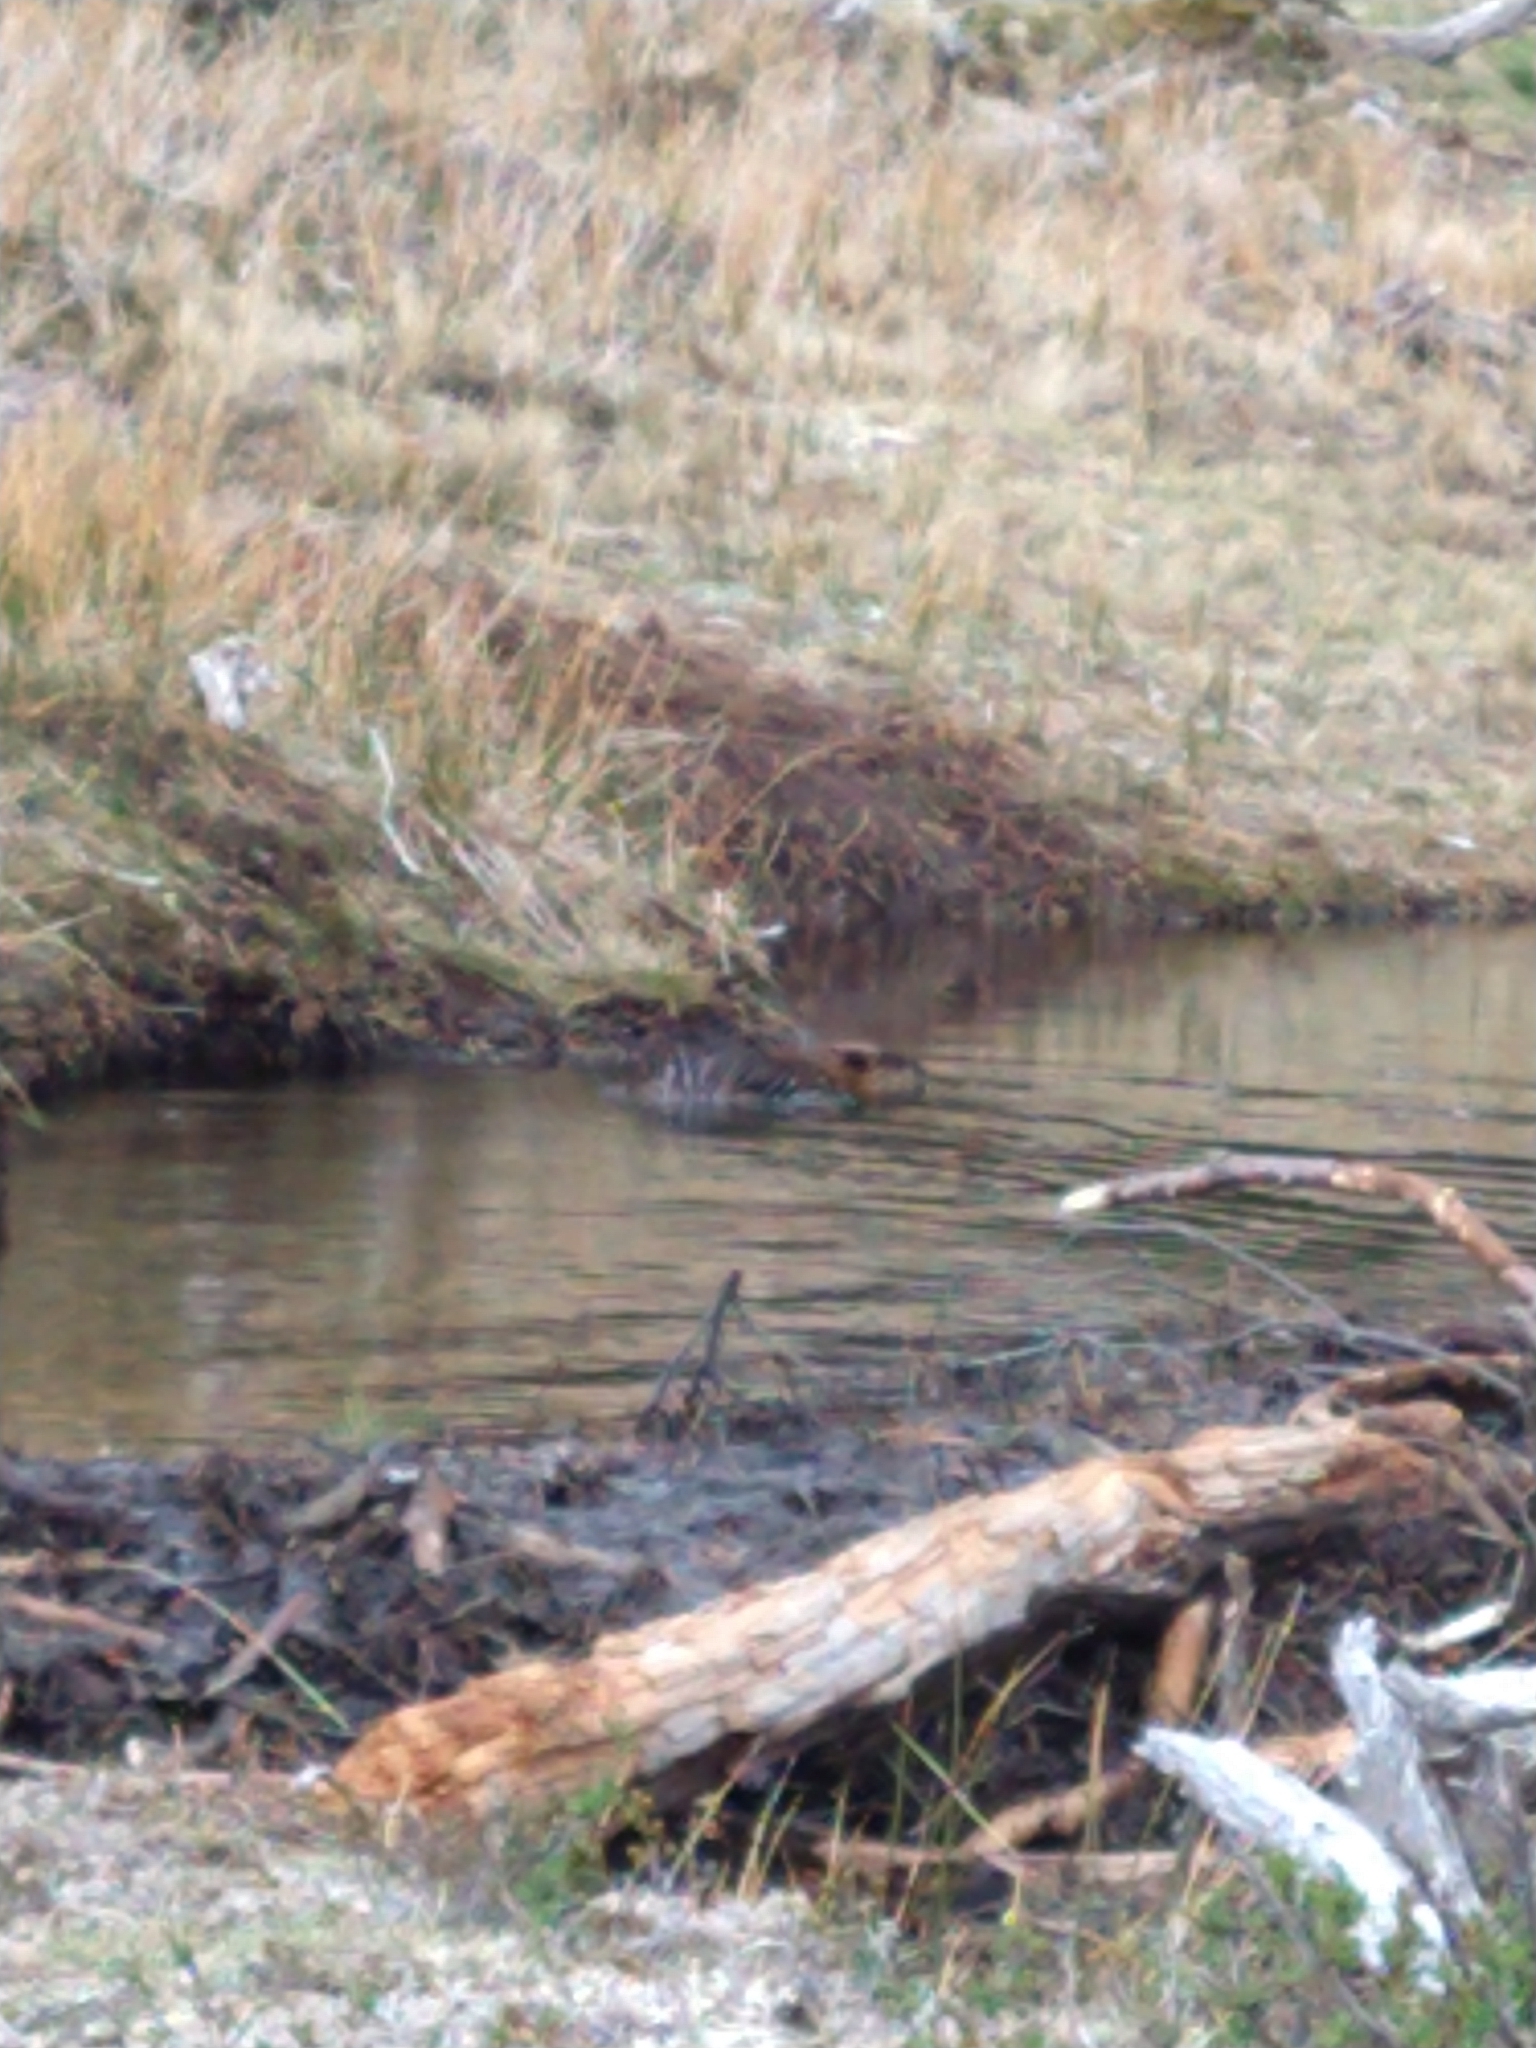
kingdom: Animalia
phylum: Chordata
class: Mammalia
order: Rodentia
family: Castoridae
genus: Castor
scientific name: Castor canadensis
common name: American beaver
